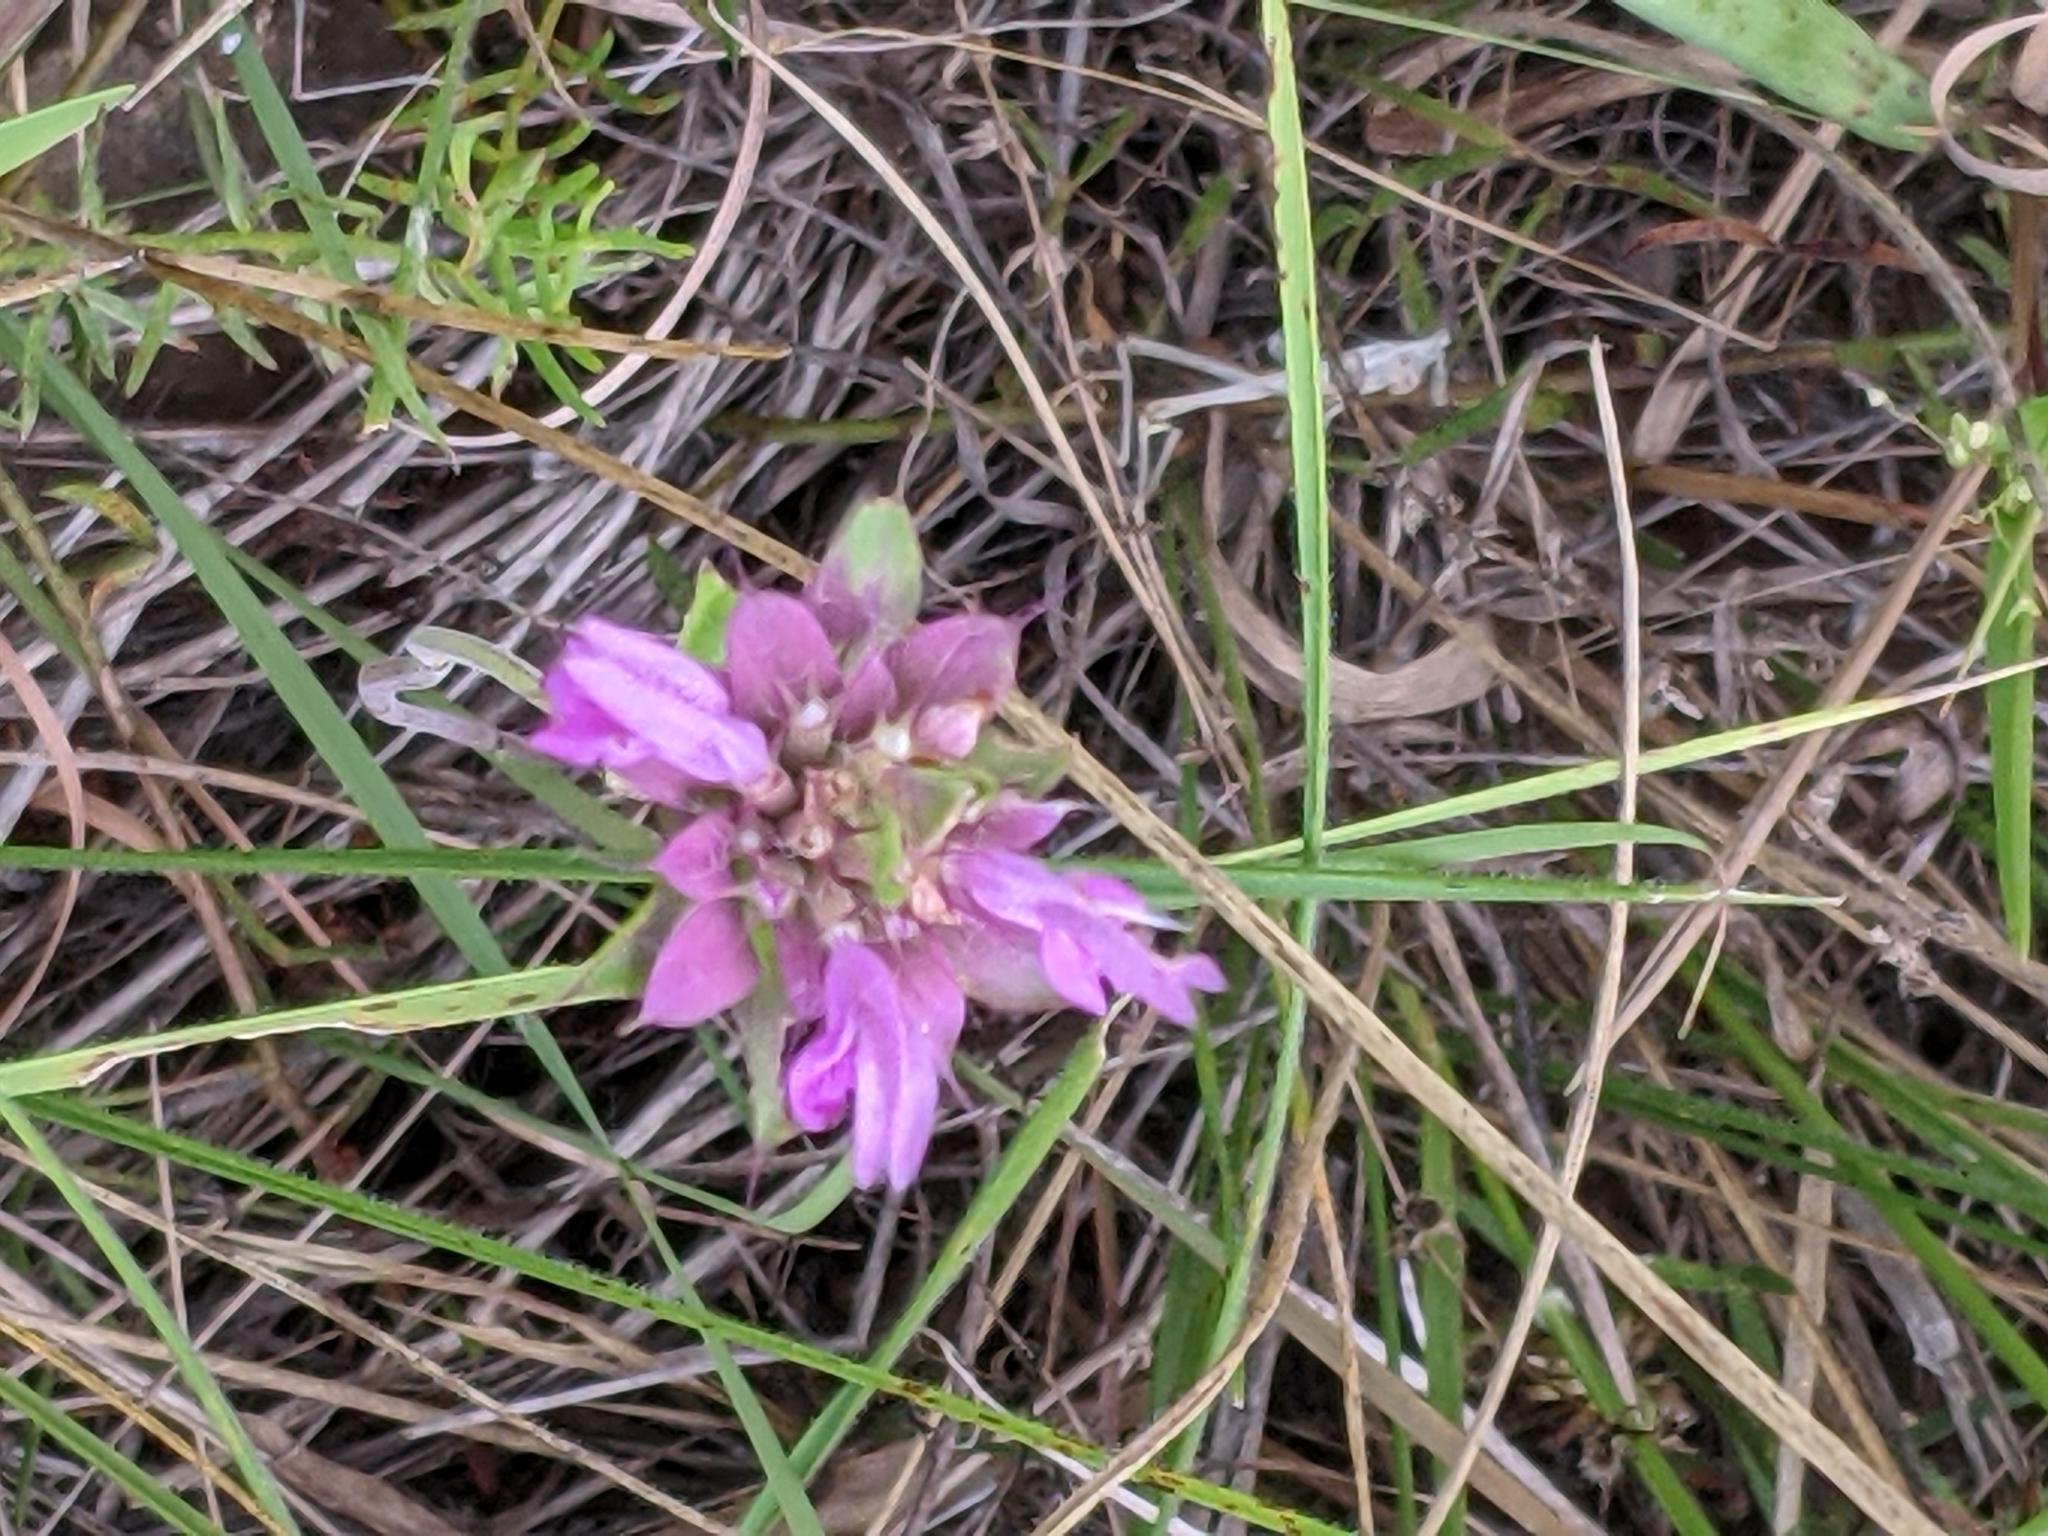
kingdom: Plantae
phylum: Tracheophyta
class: Magnoliopsida
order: Lamiales
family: Lamiaceae
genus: Monarda
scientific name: Monarda citriodora
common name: Lemon beebalm
